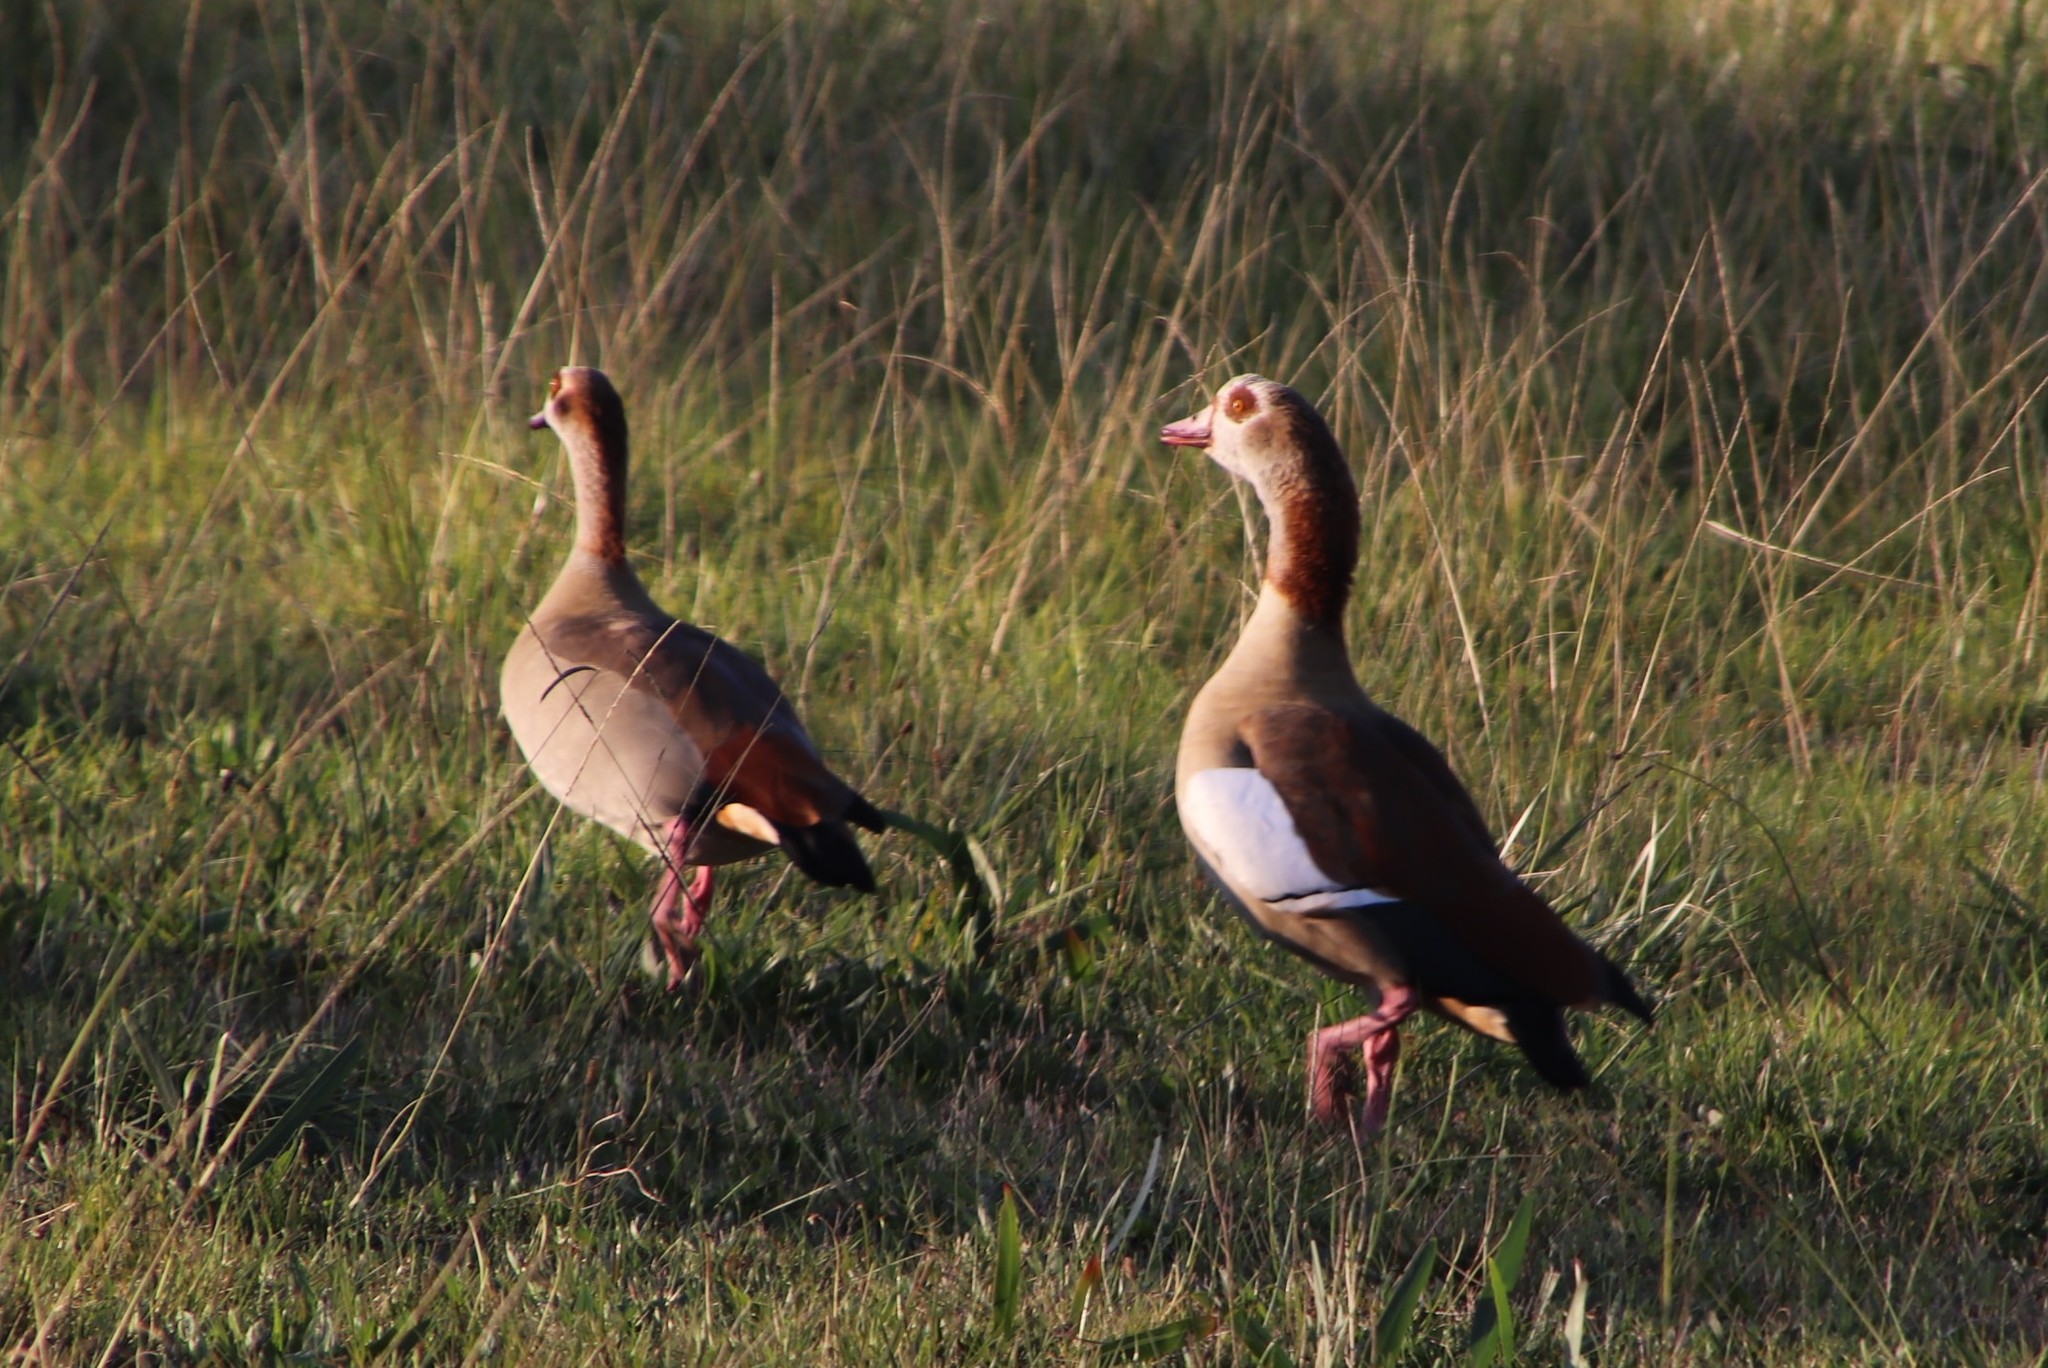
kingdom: Animalia
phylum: Chordata
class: Aves
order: Anseriformes
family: Anatidae
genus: Alopochen
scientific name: Alopochen aegyptiaca
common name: Egyptian goose
